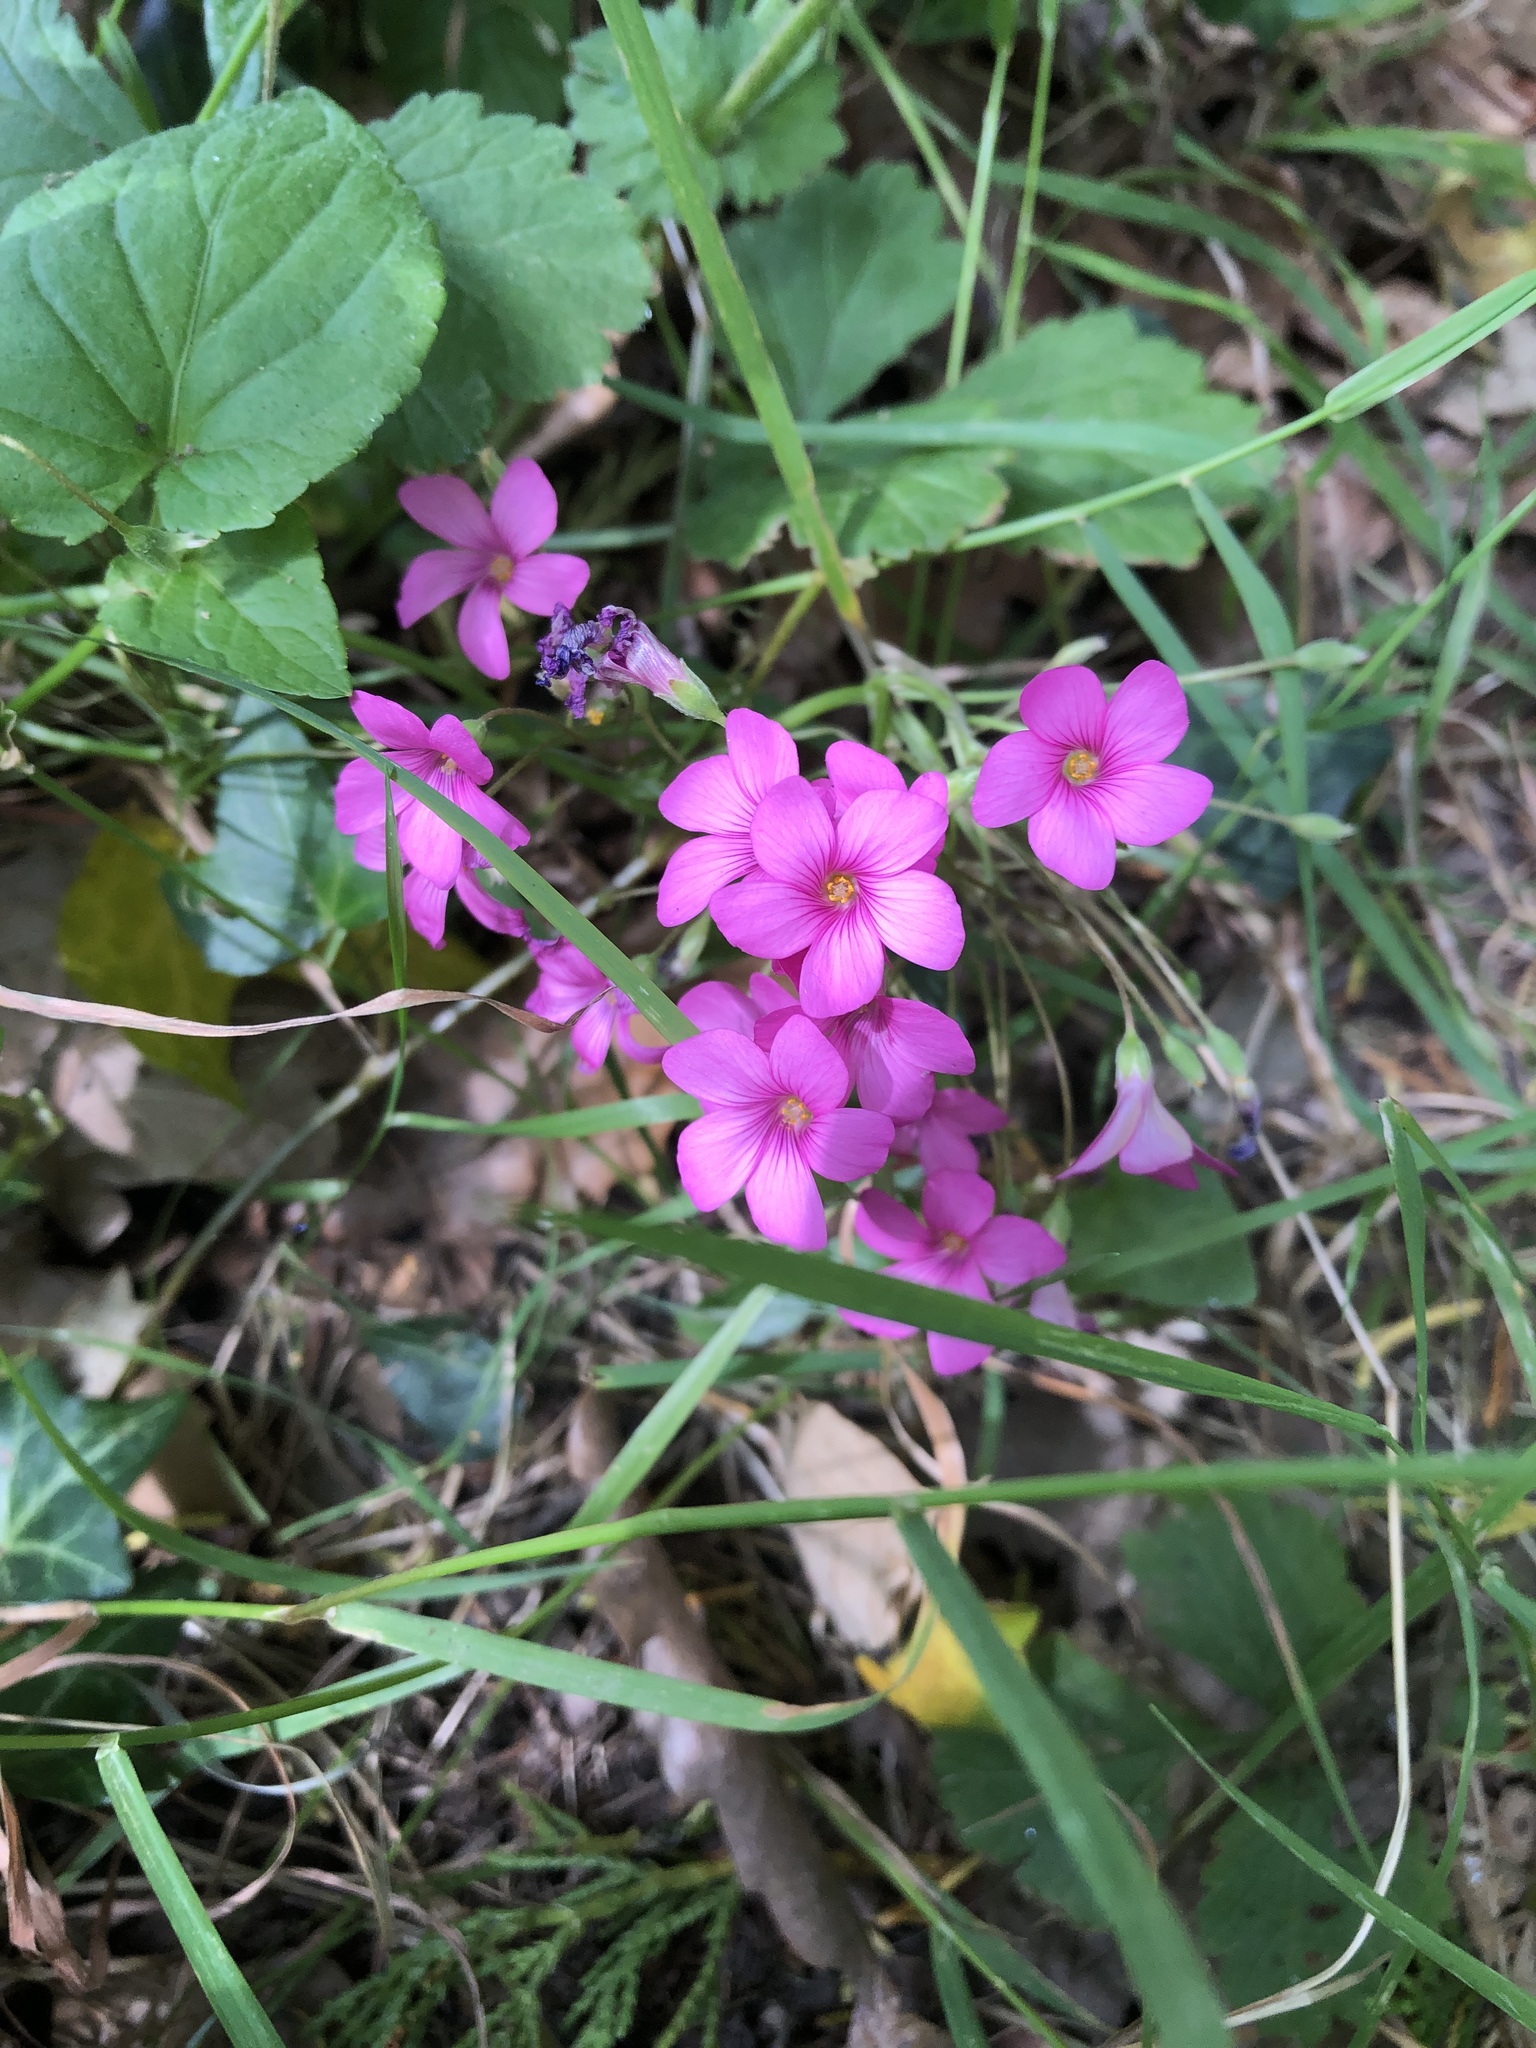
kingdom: Plantae
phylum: Tracheophyta
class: Magnoliopsida
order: Oxalidales
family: Oxalidaceae
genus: Oxalis
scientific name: Oxalis articulata
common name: Pink-sorrel
